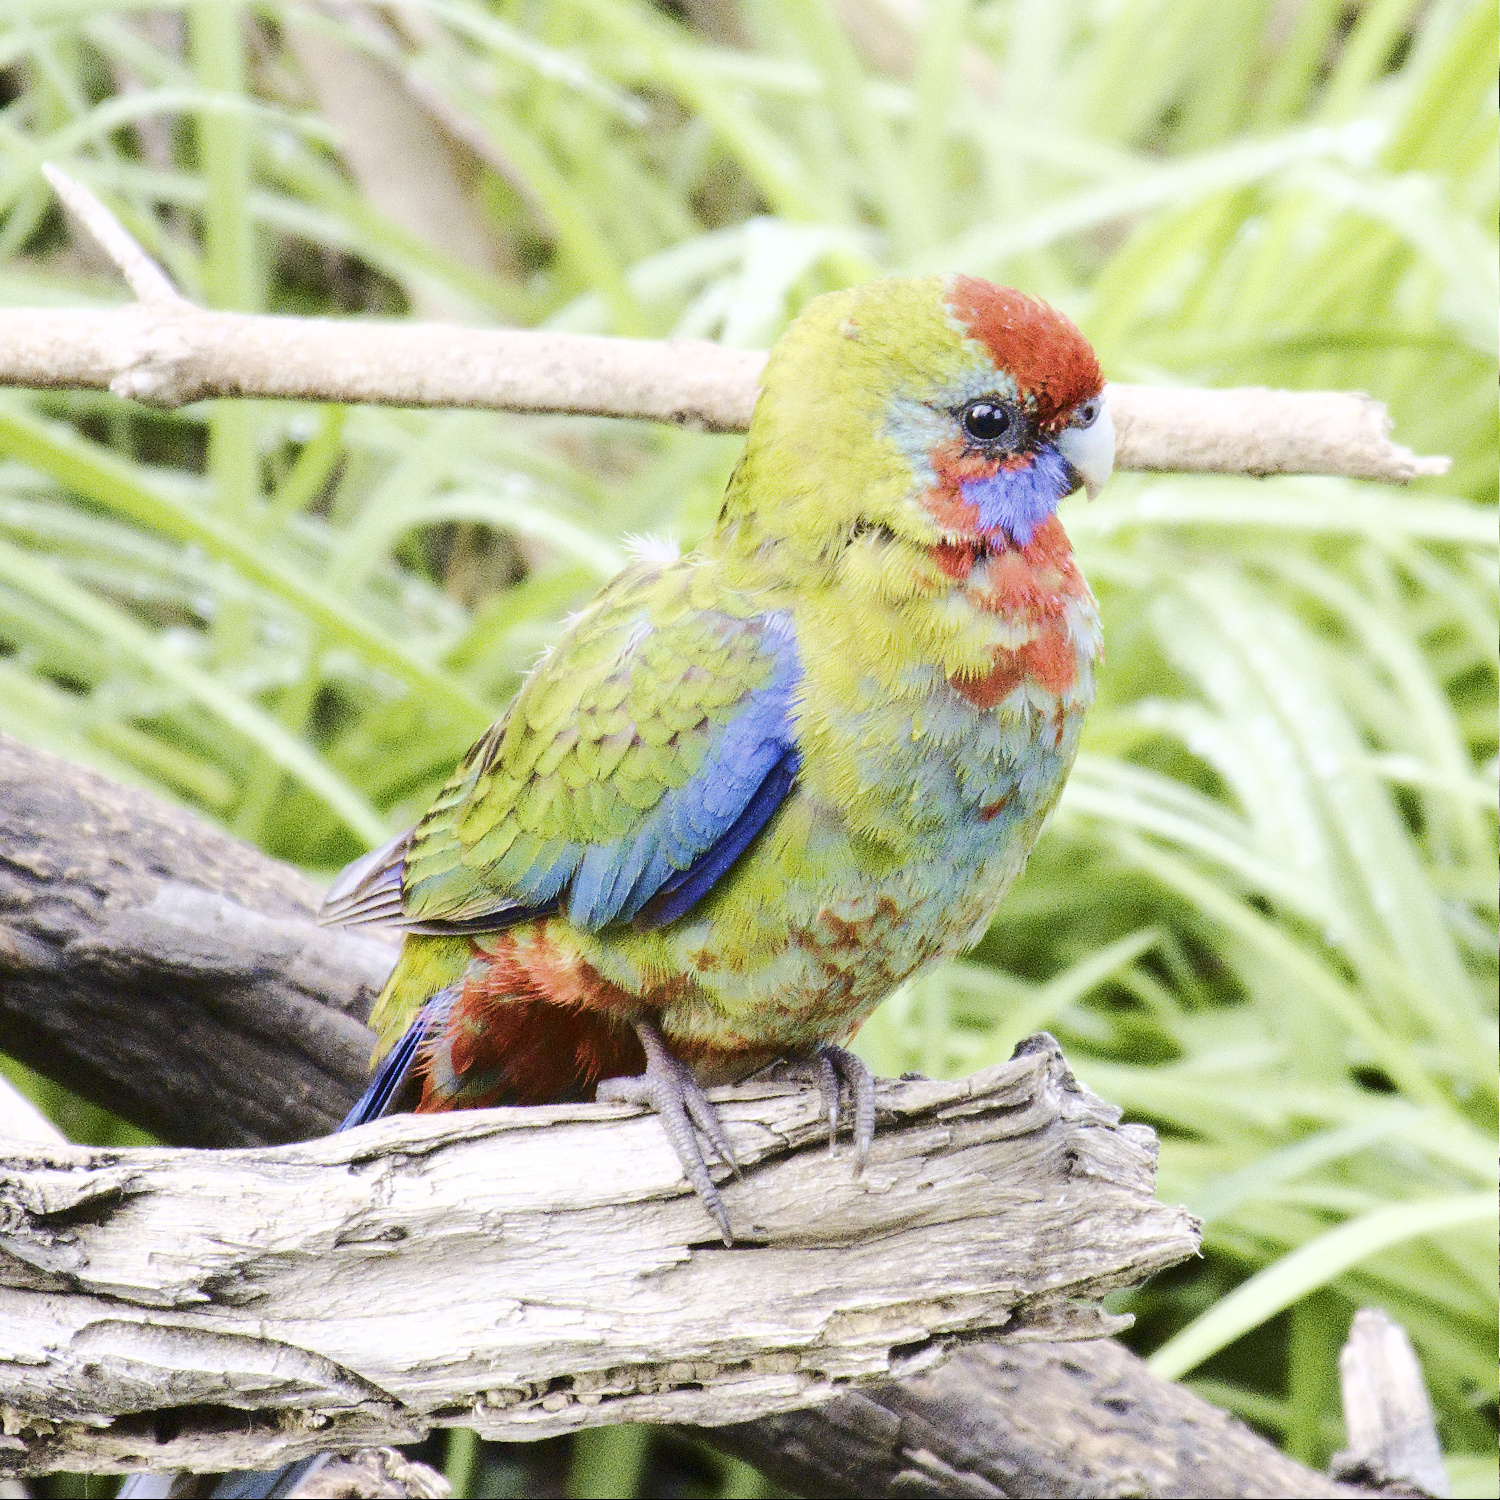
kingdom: Animalia
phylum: Chordata
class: Aves
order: Psittaciformes
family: Psittacidae
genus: Platycercus
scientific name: Platycercus elegans
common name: Crimson rosella
